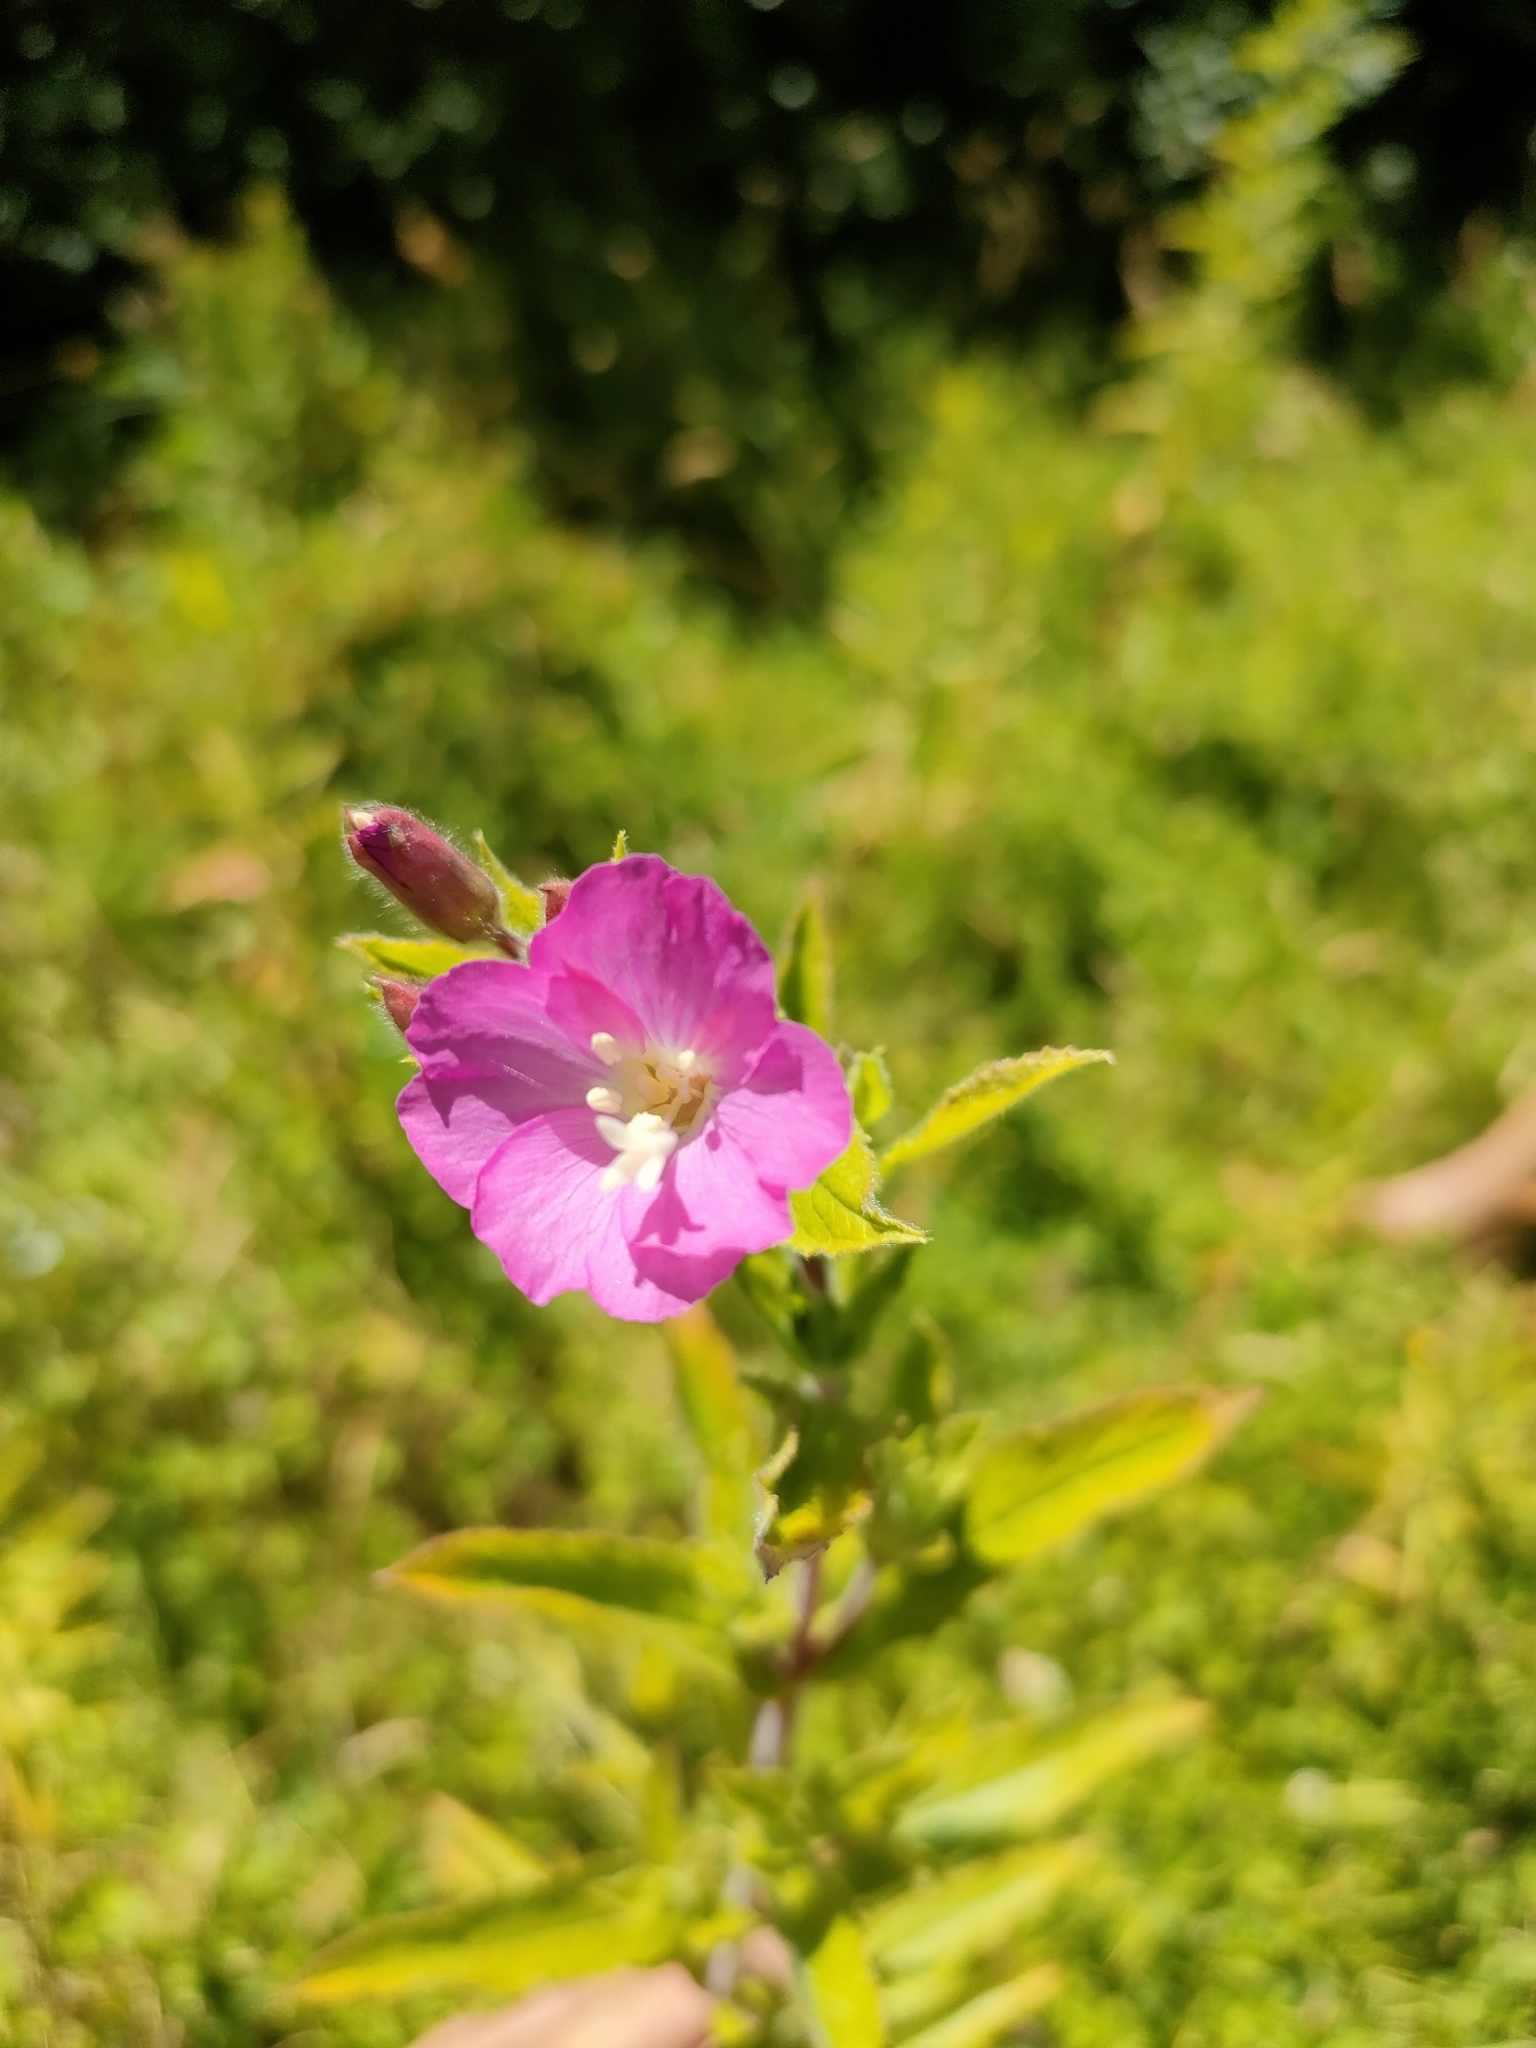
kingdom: Plantae
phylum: Tracheophyta
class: Magnoliopsida
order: Myrtales
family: Onagraceae
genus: Epilobium
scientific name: Epilobium hirsutum
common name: Great willowherb
